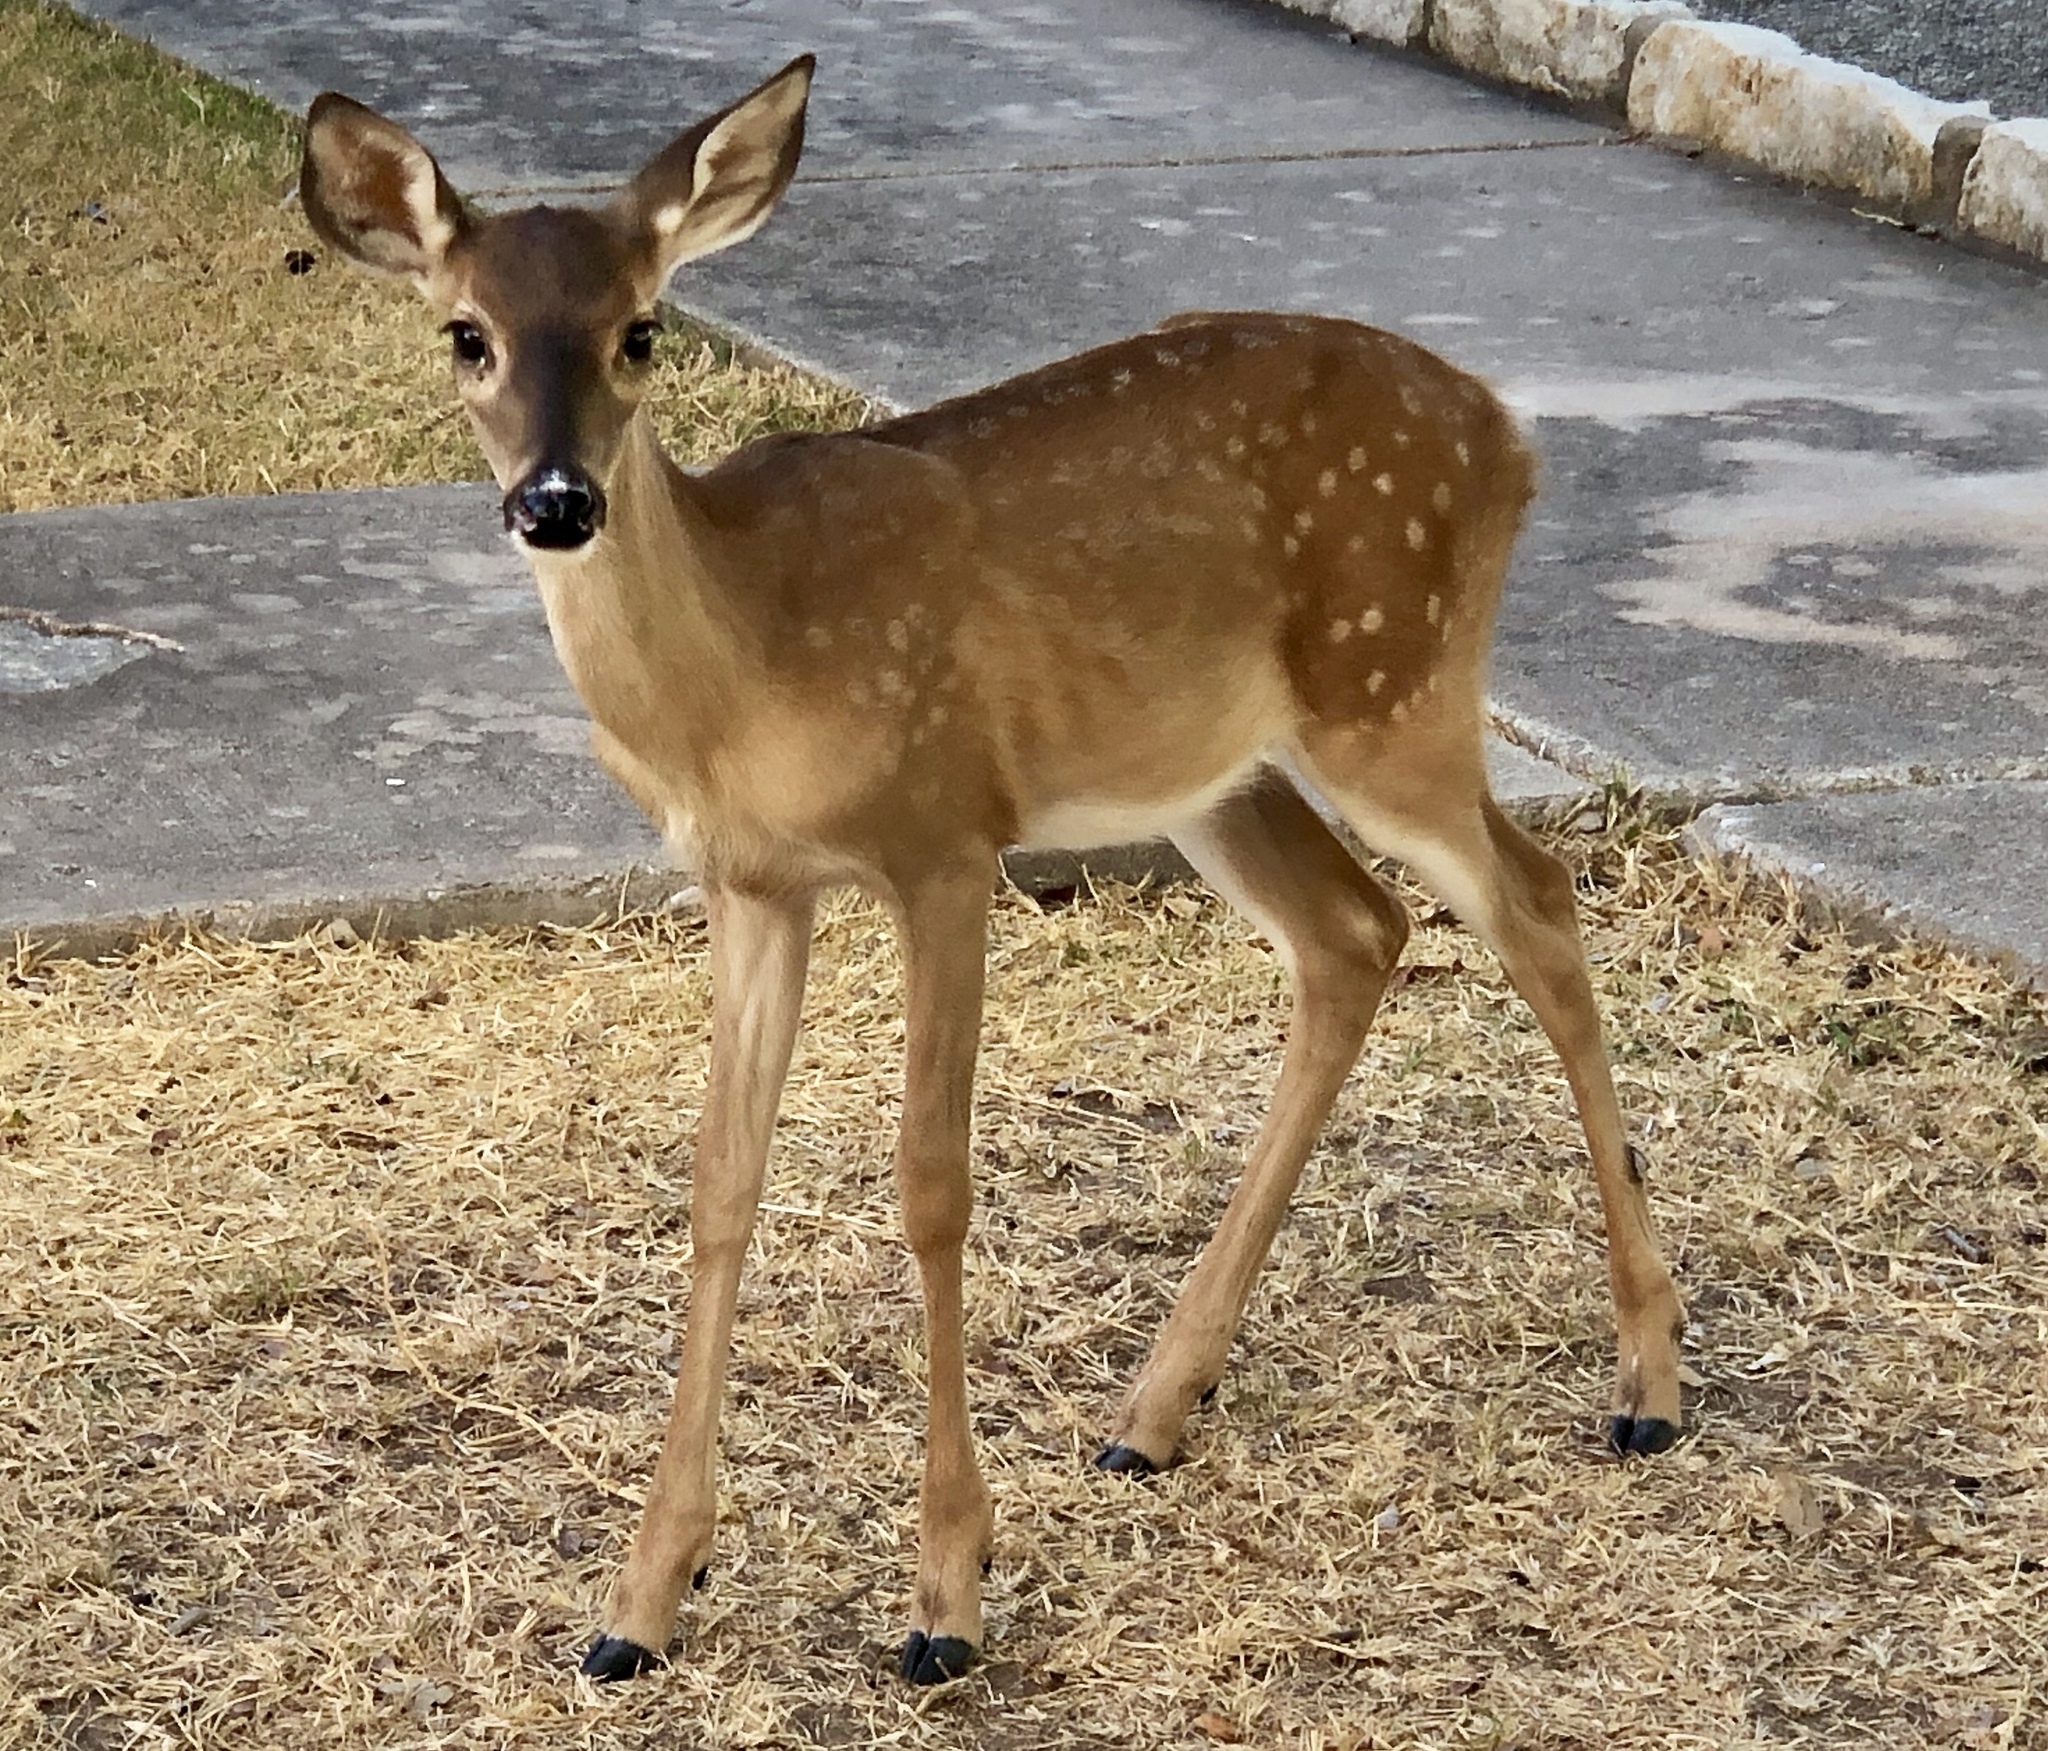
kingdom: Animalia
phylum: Chordata
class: Mammalia
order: Artiodactyla
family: Cervidae
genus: Odocoileus
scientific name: Odocoileus virginianus
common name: White-tailed deer
